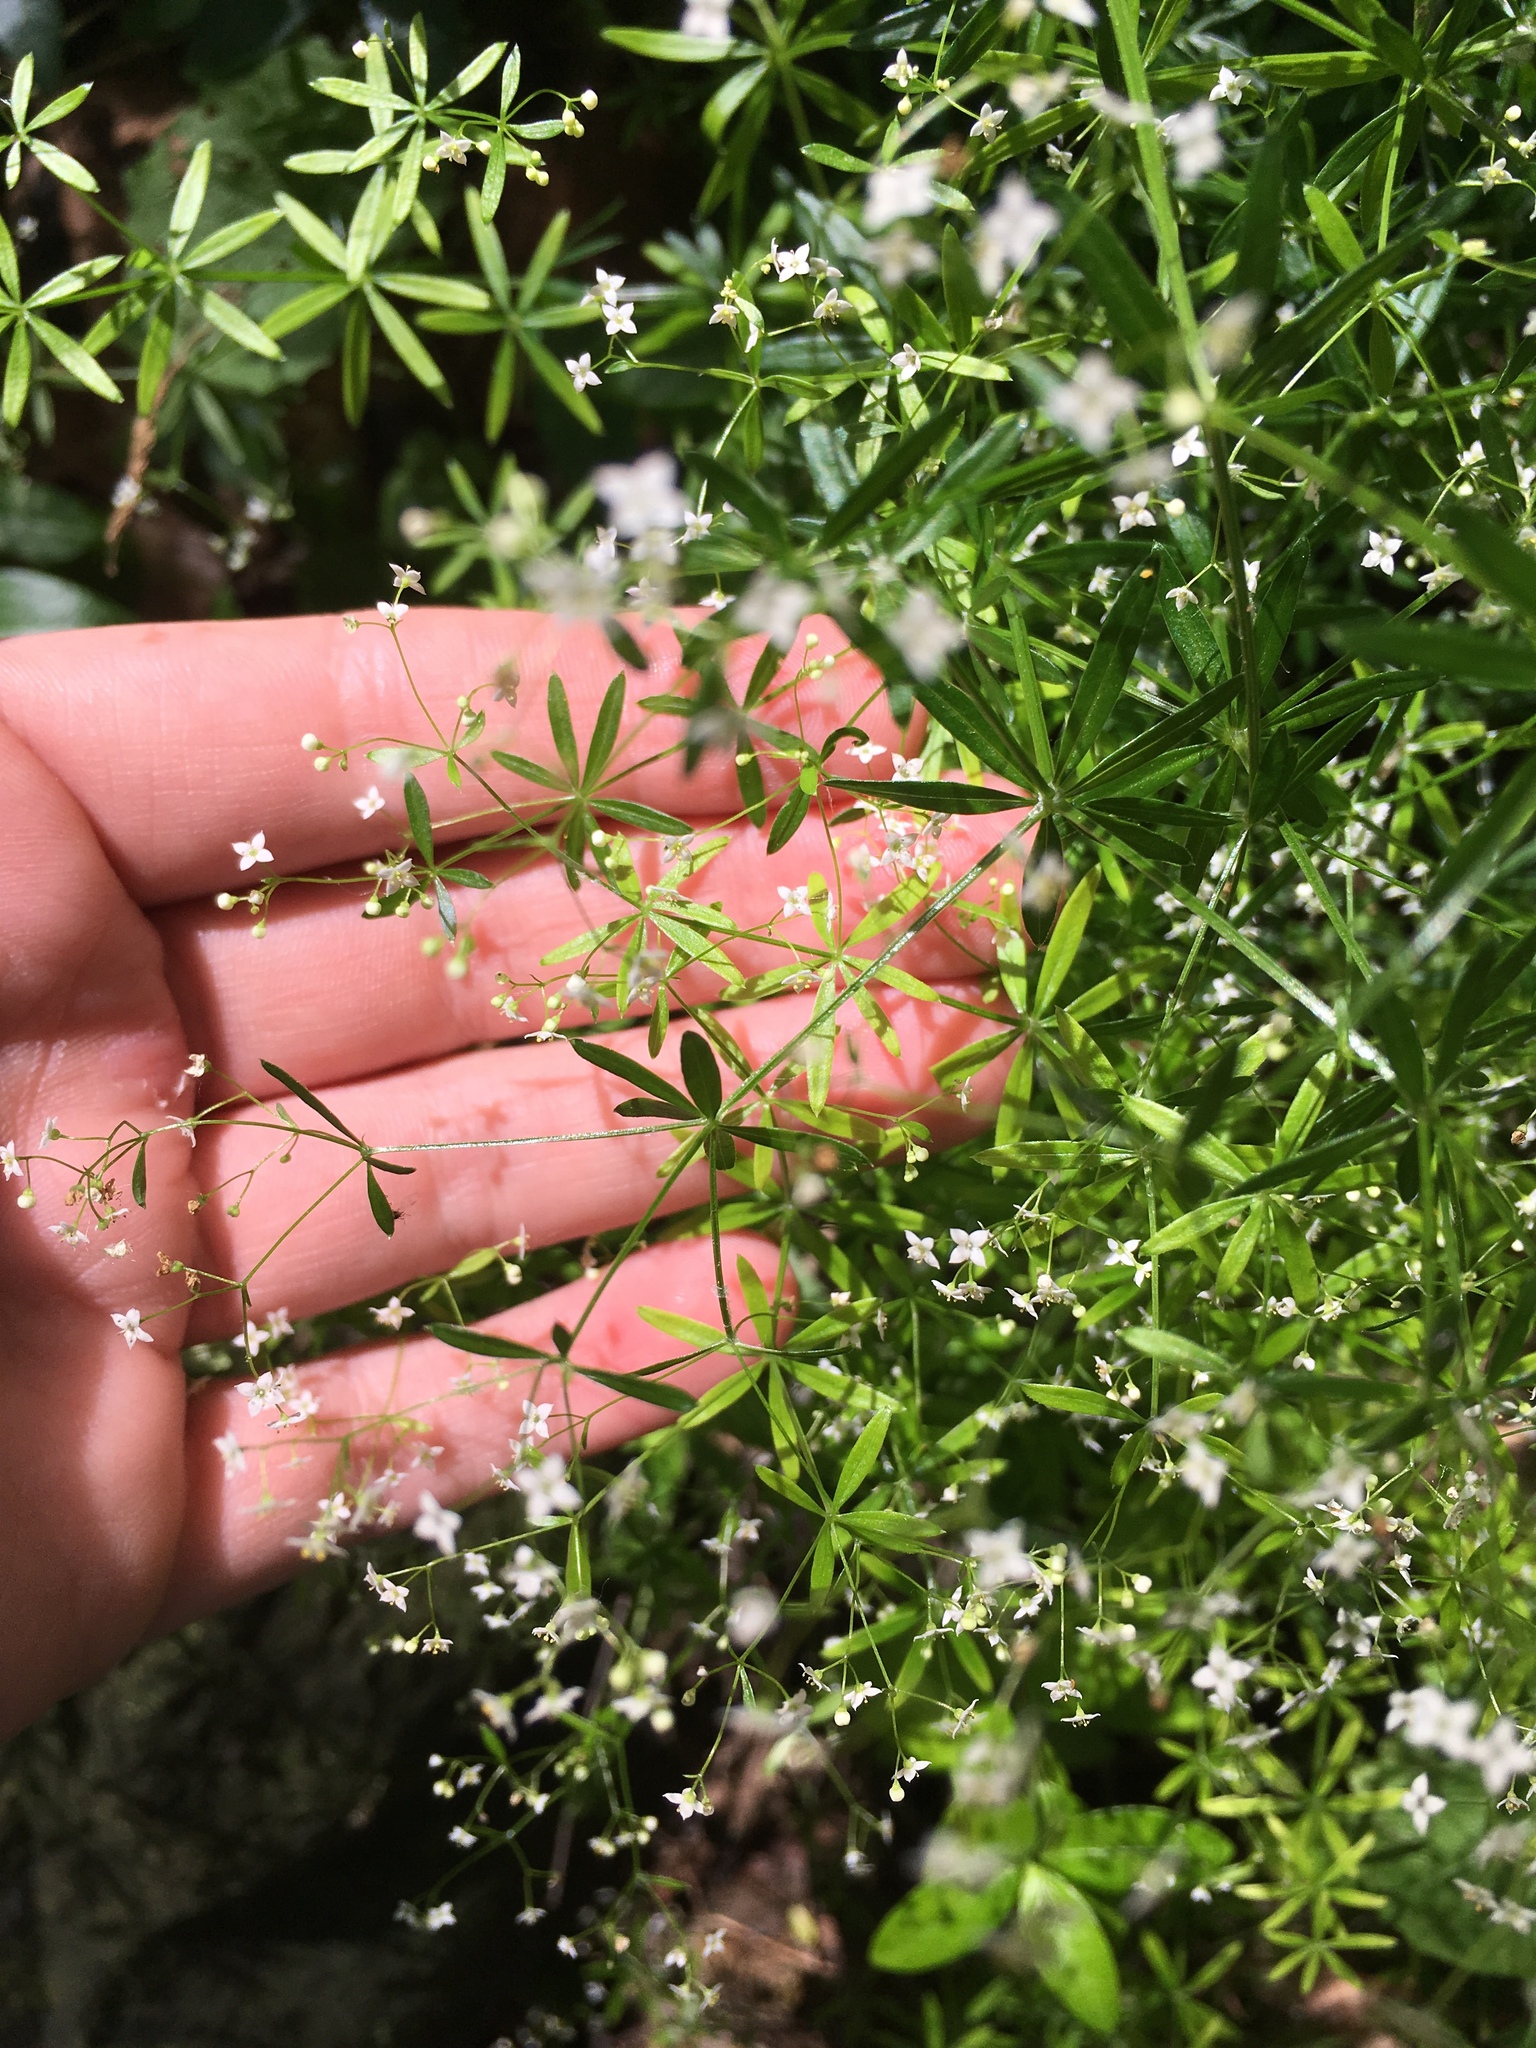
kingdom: Plantae
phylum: Tracheophyta
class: Magnoliopsida
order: Gentianales
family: Rubiaceae
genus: Galium
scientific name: Galium concinnum
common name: Shining bedstraw
